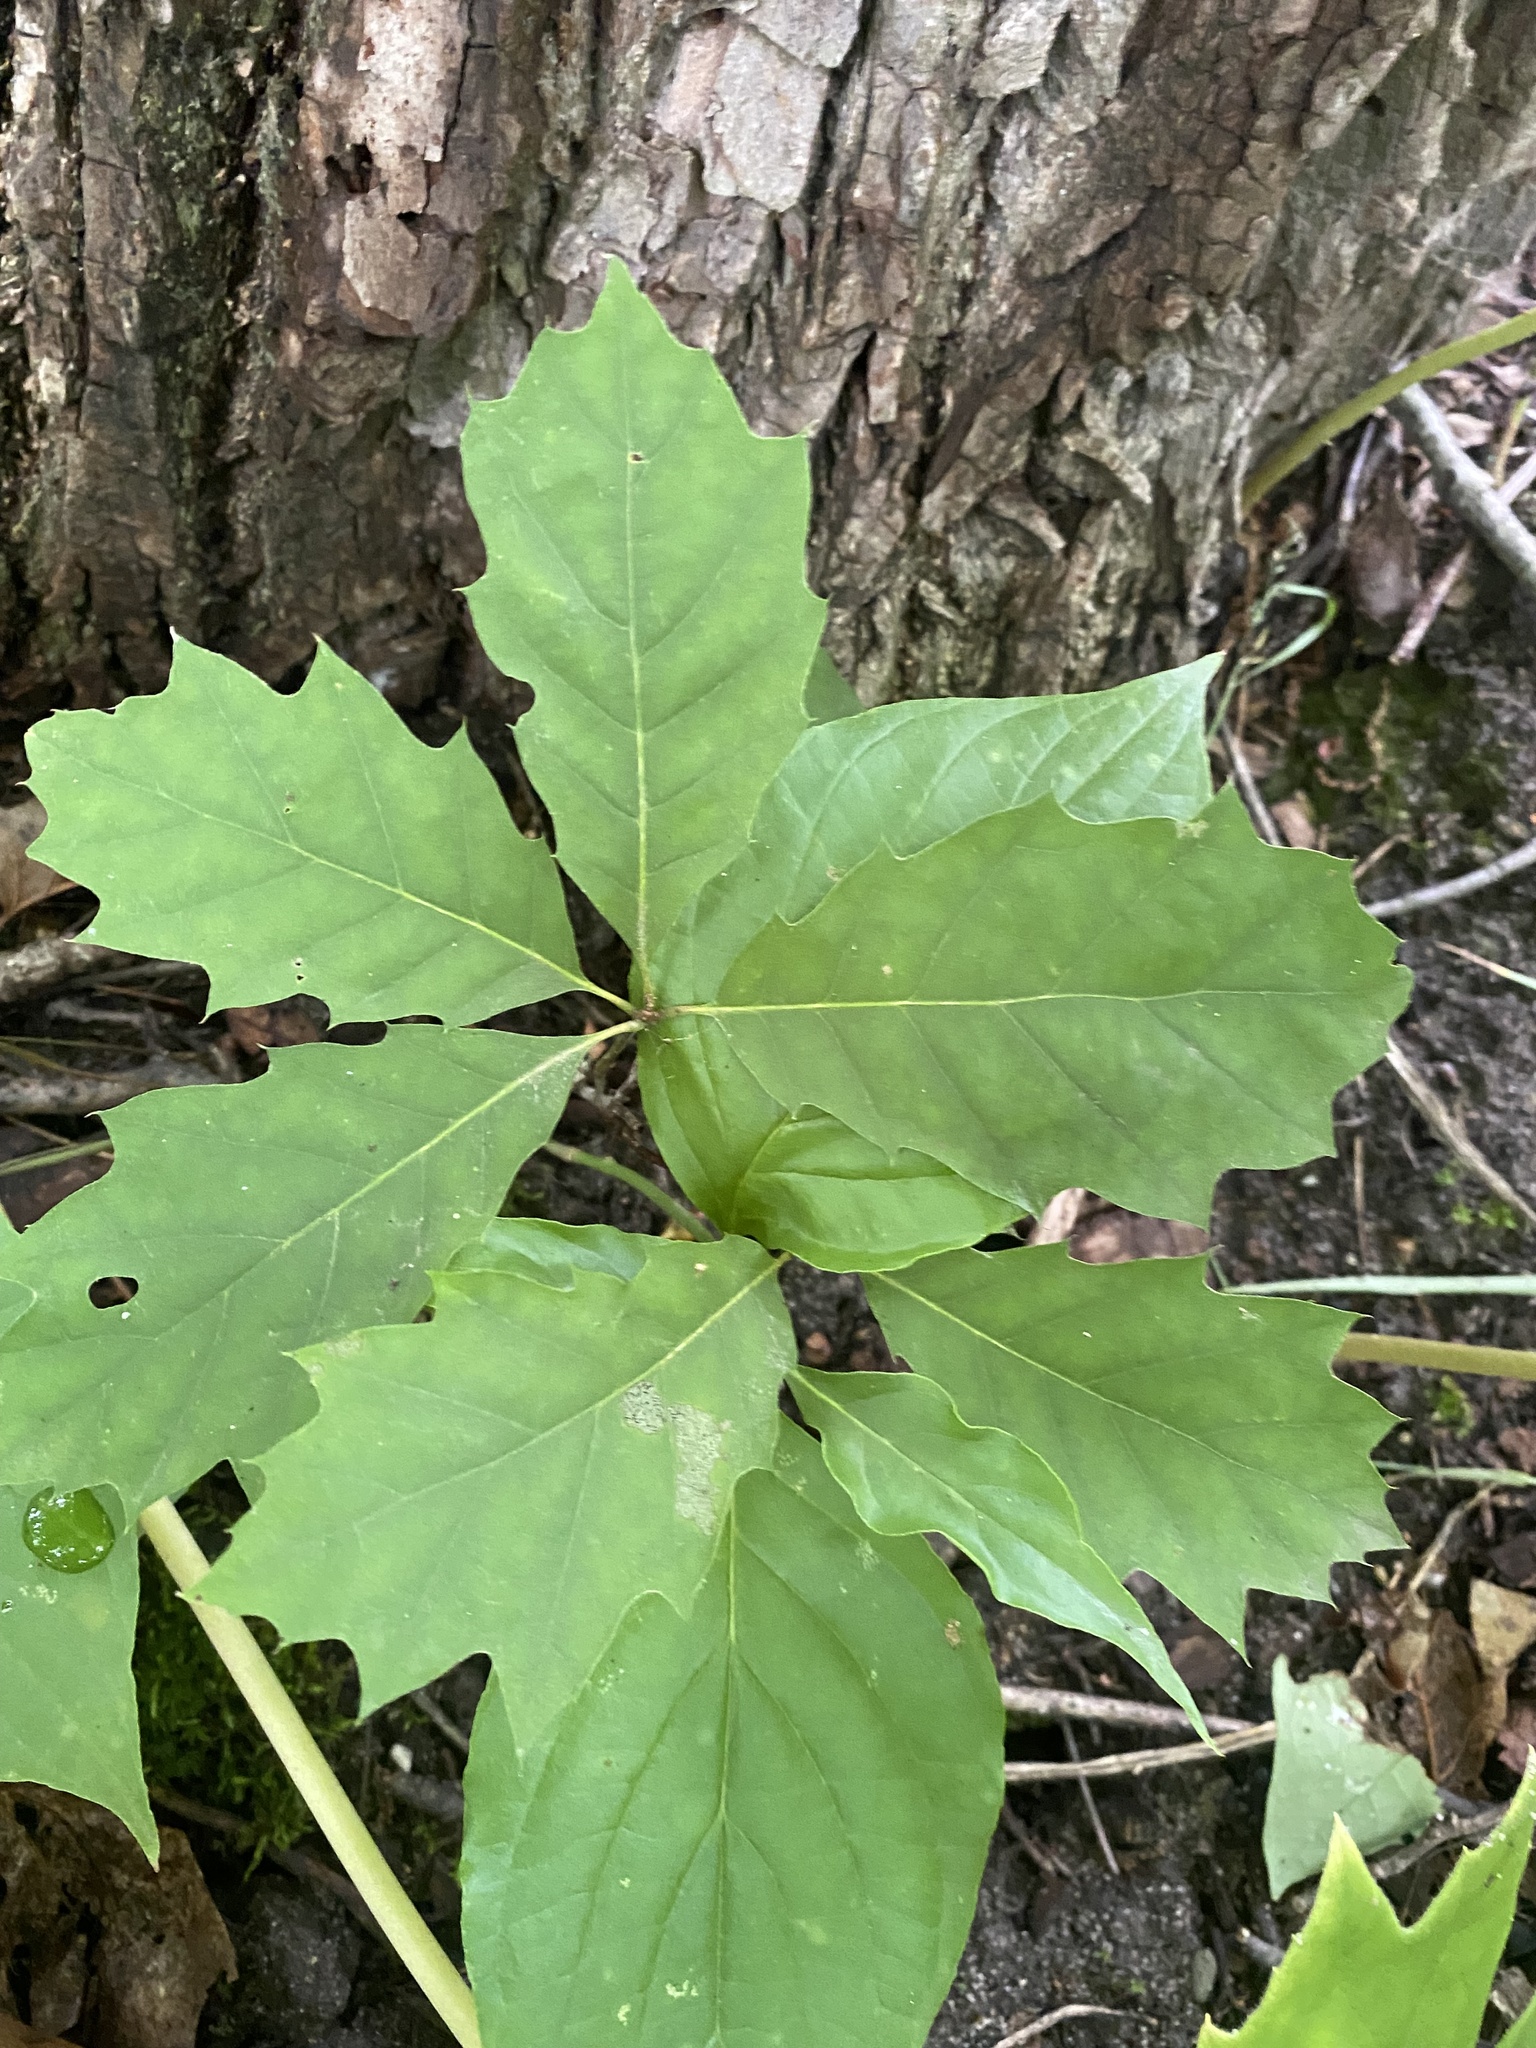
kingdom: Plantae
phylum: Tracheophyta
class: Magnoliopsida
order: Fagales
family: Fagaceae
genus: Quercus
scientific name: Quercus rubra
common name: Red oak
